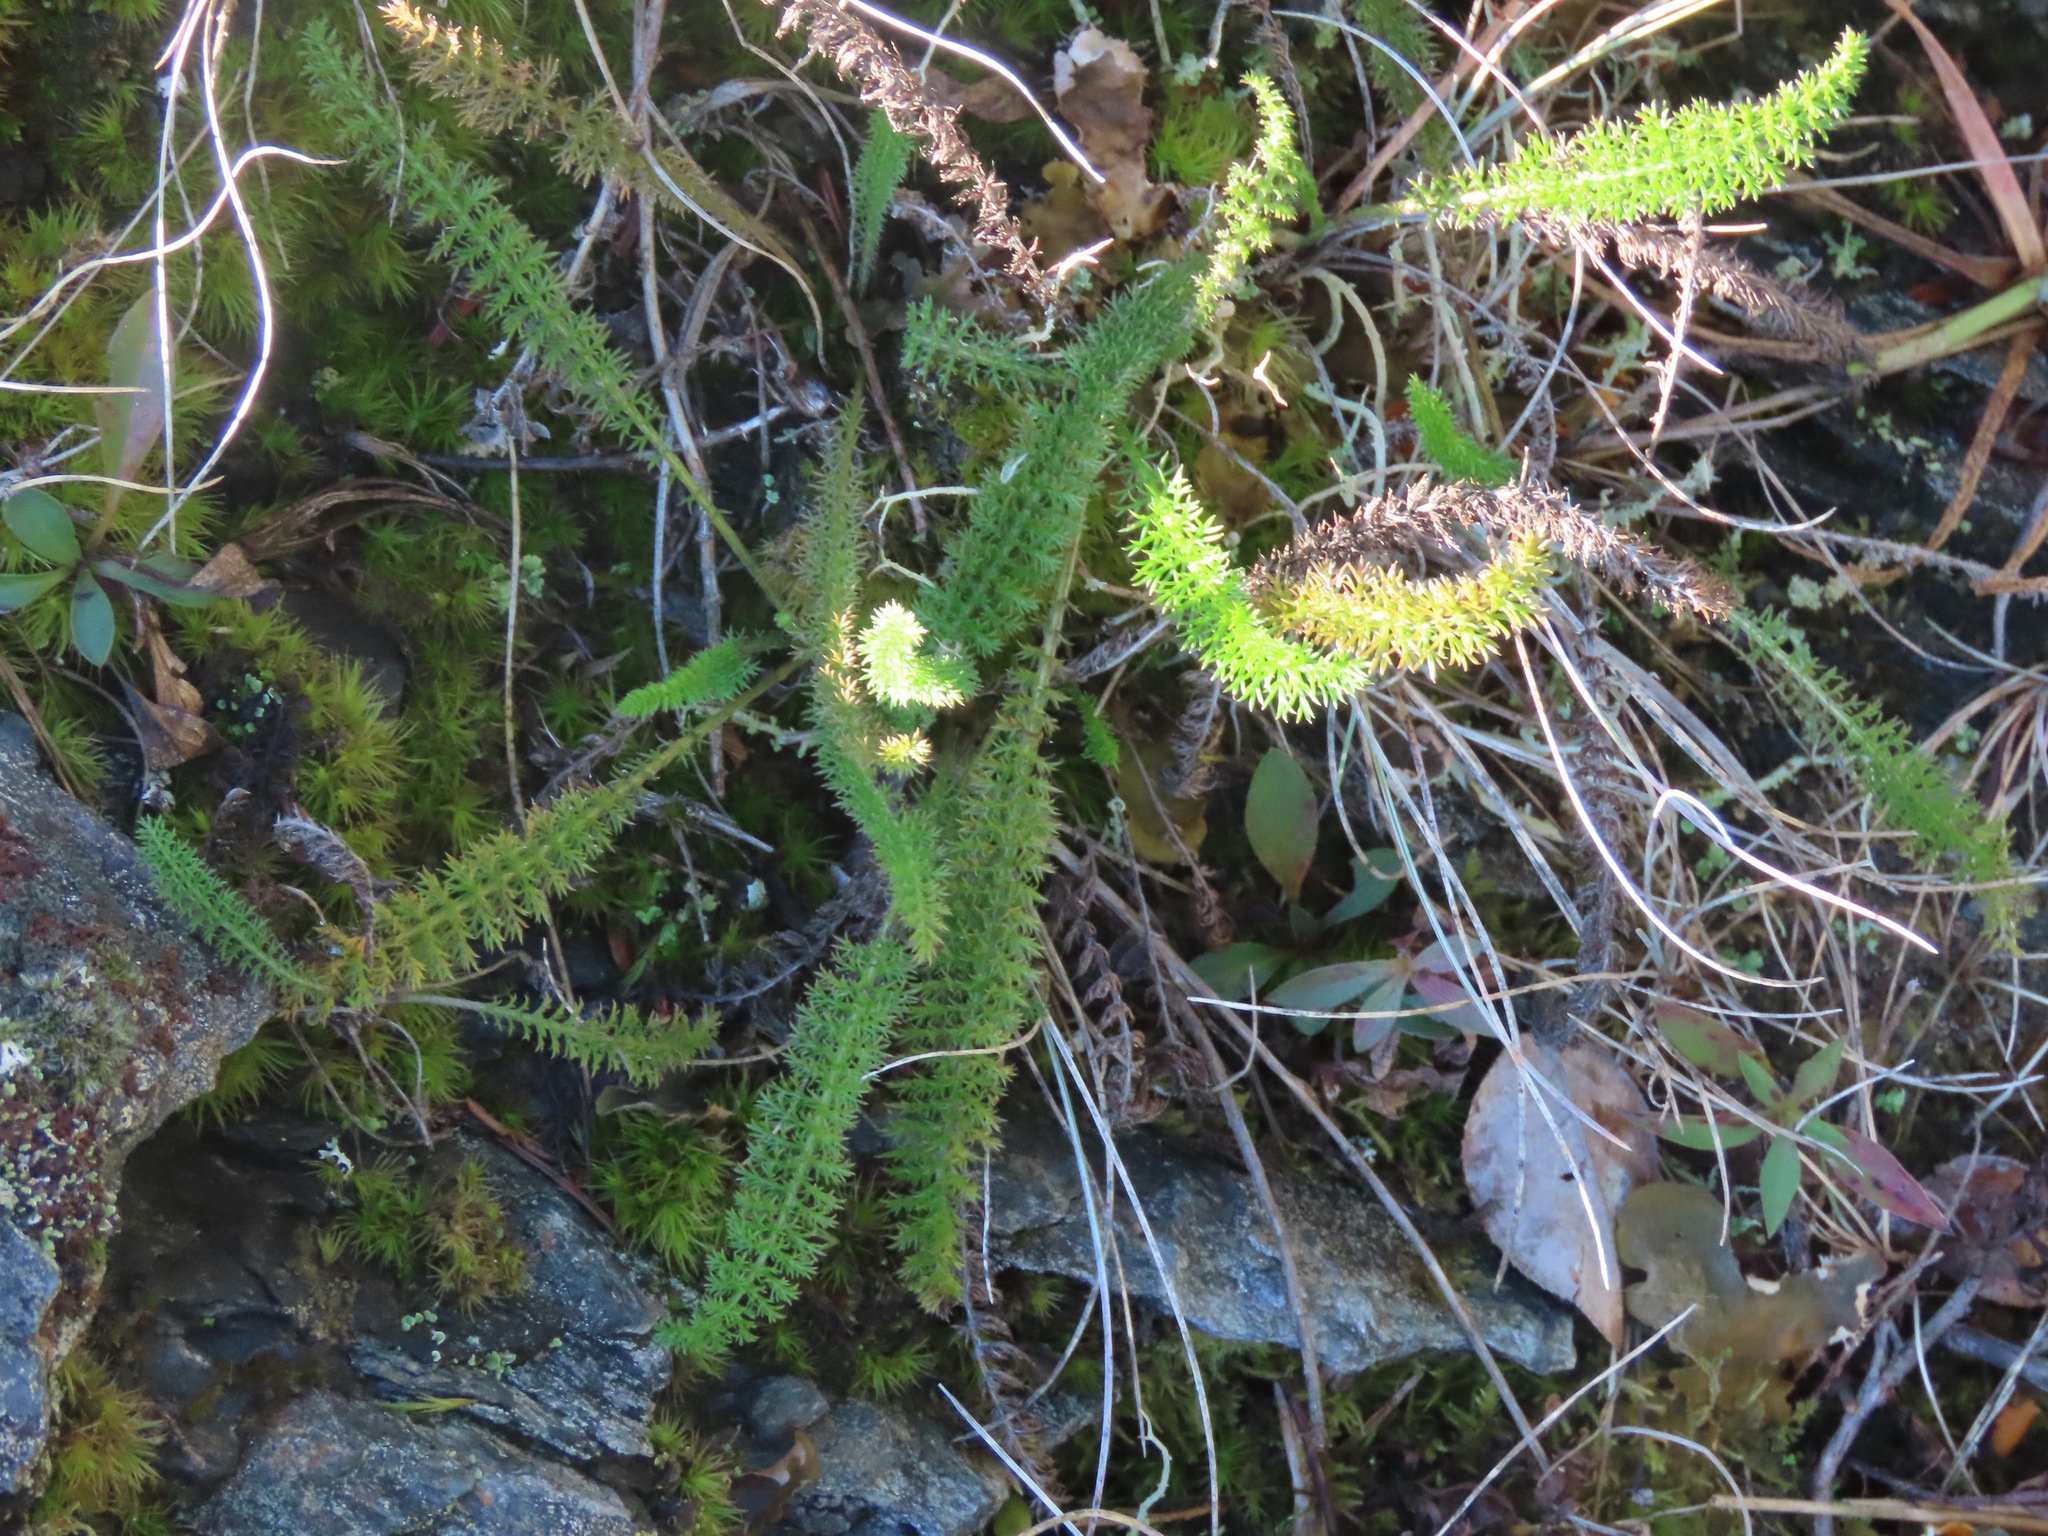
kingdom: Plantae
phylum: Tracheophyta
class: Magnoliopsida
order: Asterales
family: Asteraceae
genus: Achillea
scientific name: Achillea millefolium
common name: Yarrow
